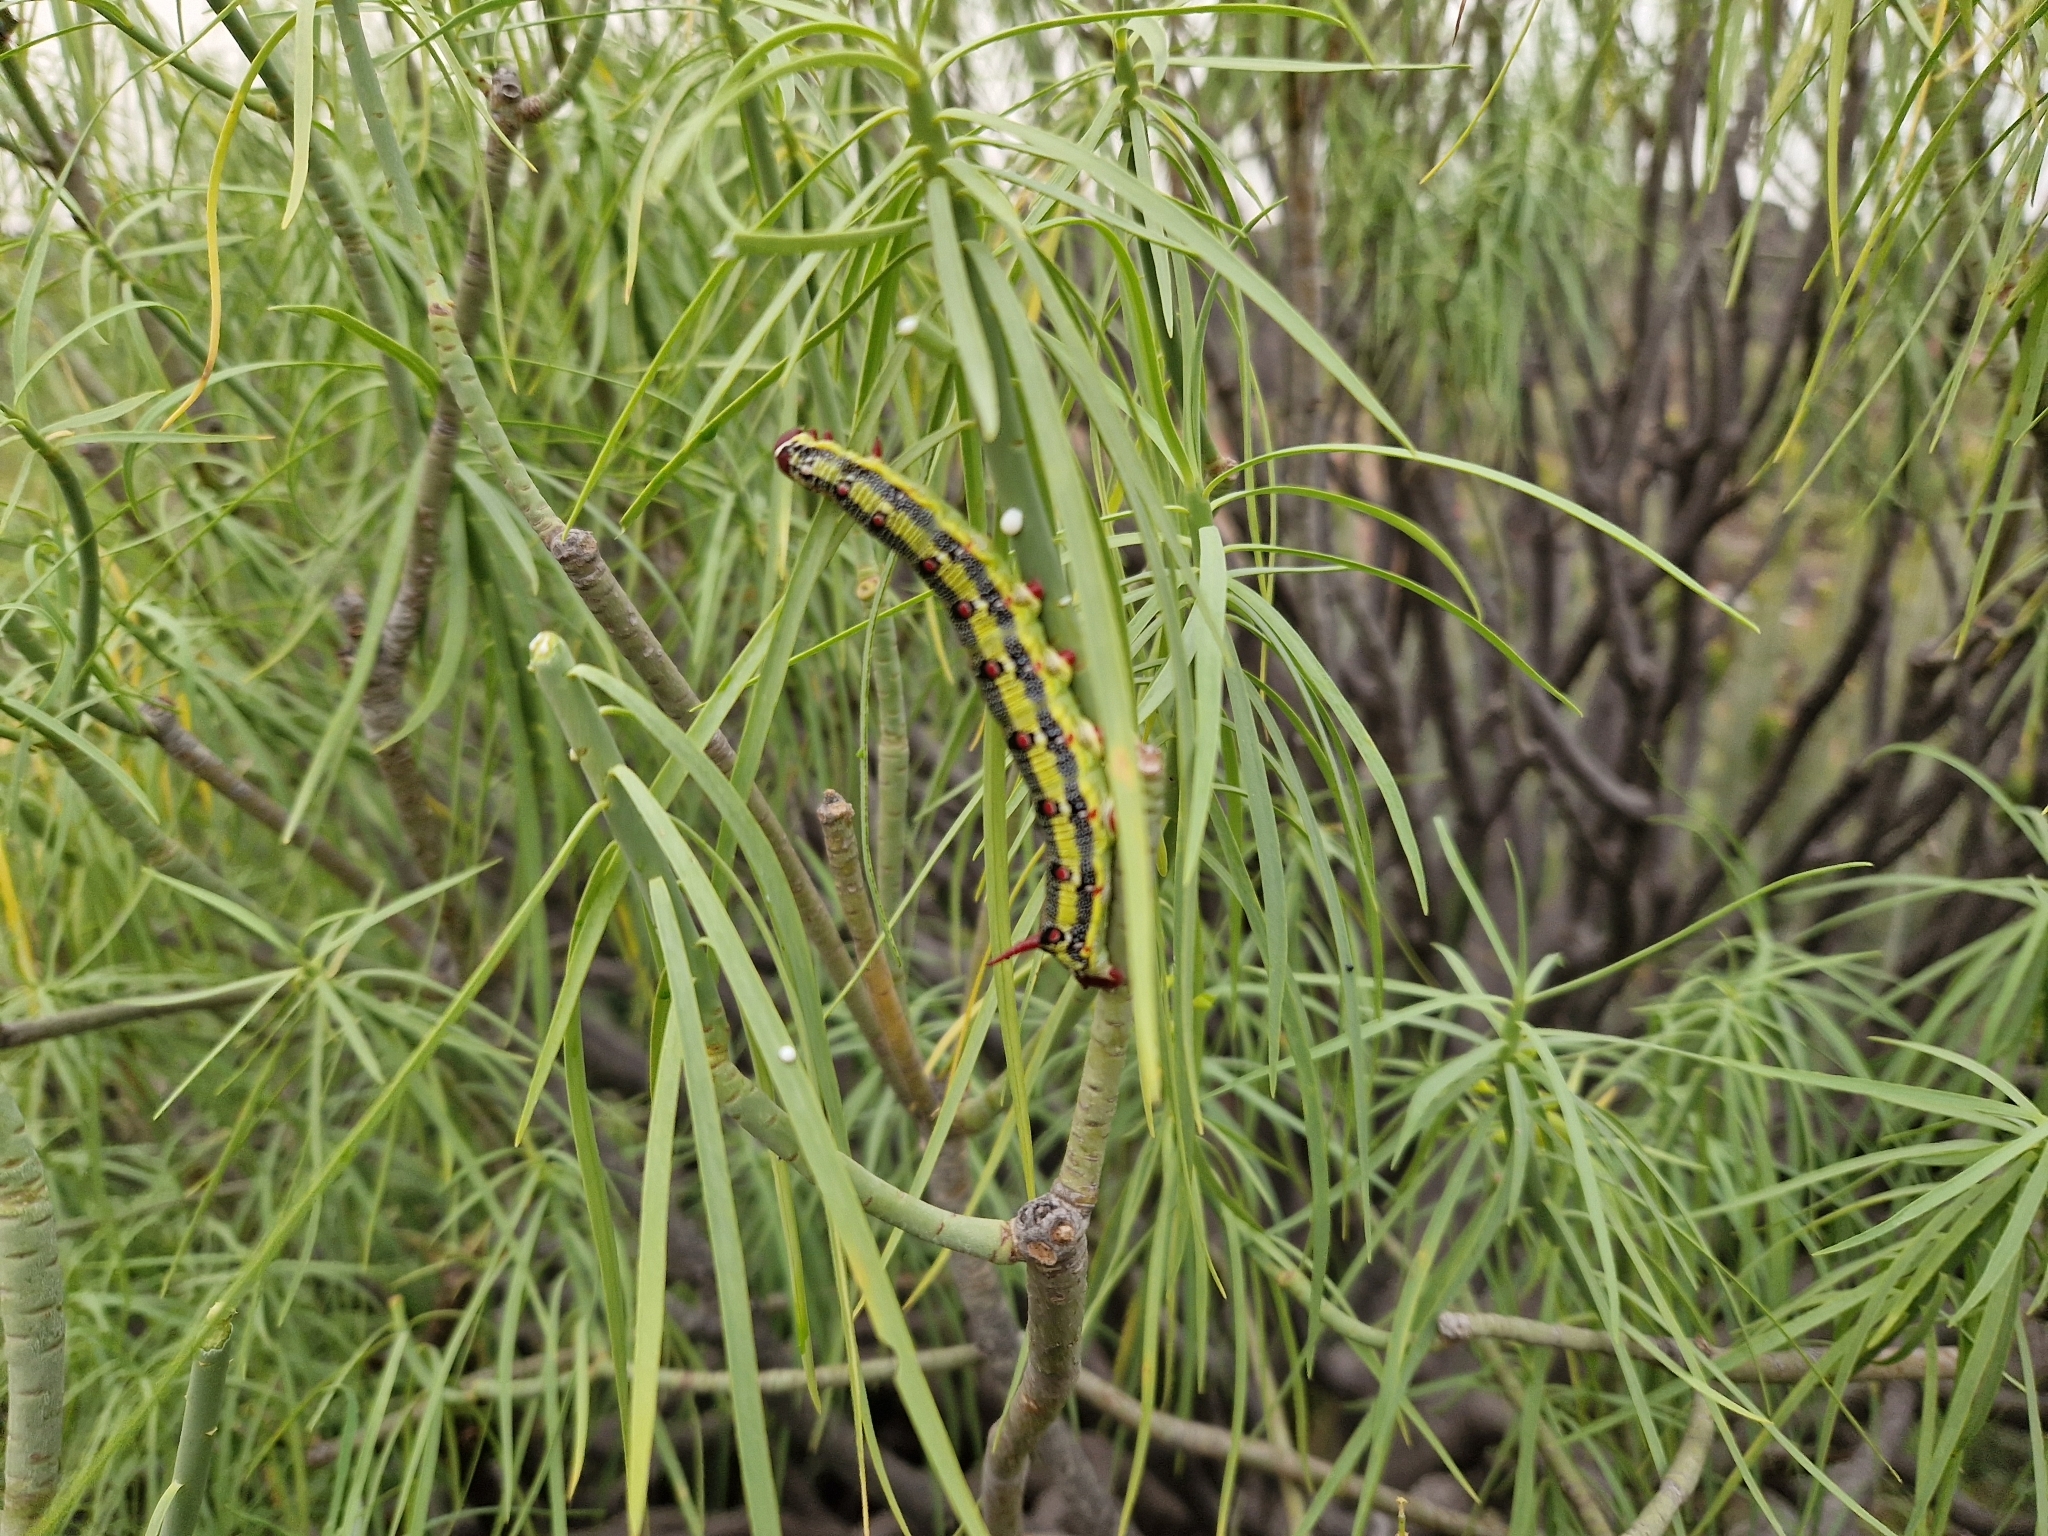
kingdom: Plantae
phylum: Tracheophyta
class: Magnoliopsida
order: Malpighiales
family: Euphorbiaceae
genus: Euphorbia
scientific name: Euphorbia lamarckii
